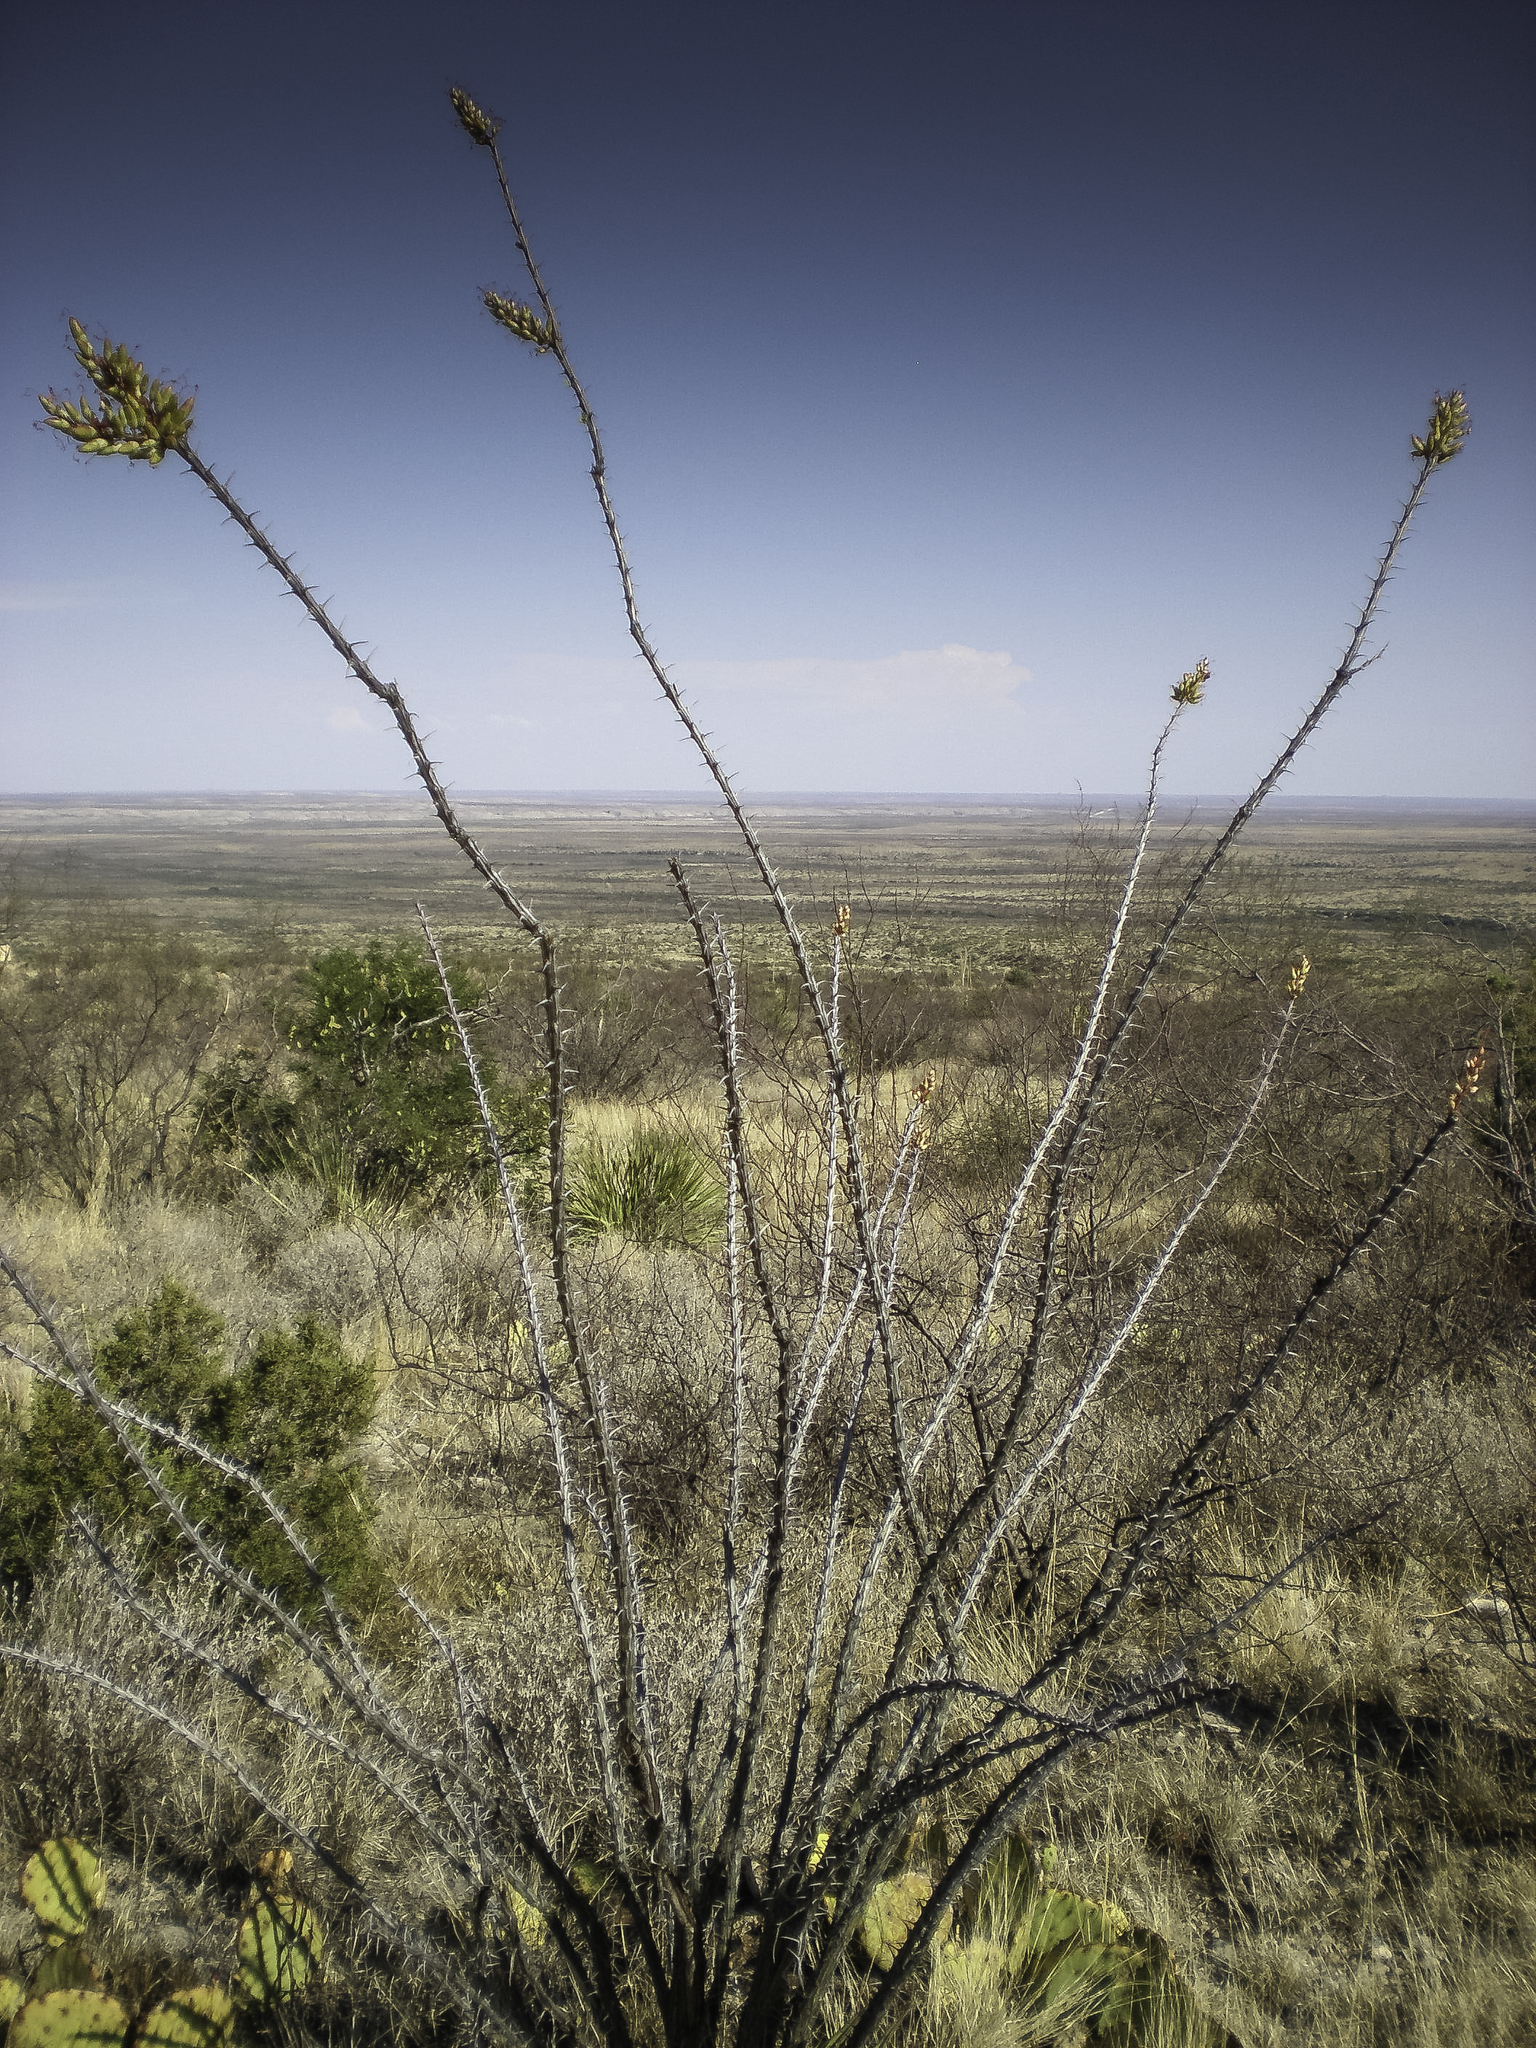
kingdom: Plantae
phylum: Tracheophyta
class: Magnoliopsida
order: Ericales
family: Fouquieriaceae
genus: Fouquieria
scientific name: Fouquieria splendens
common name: Vine-cactus
